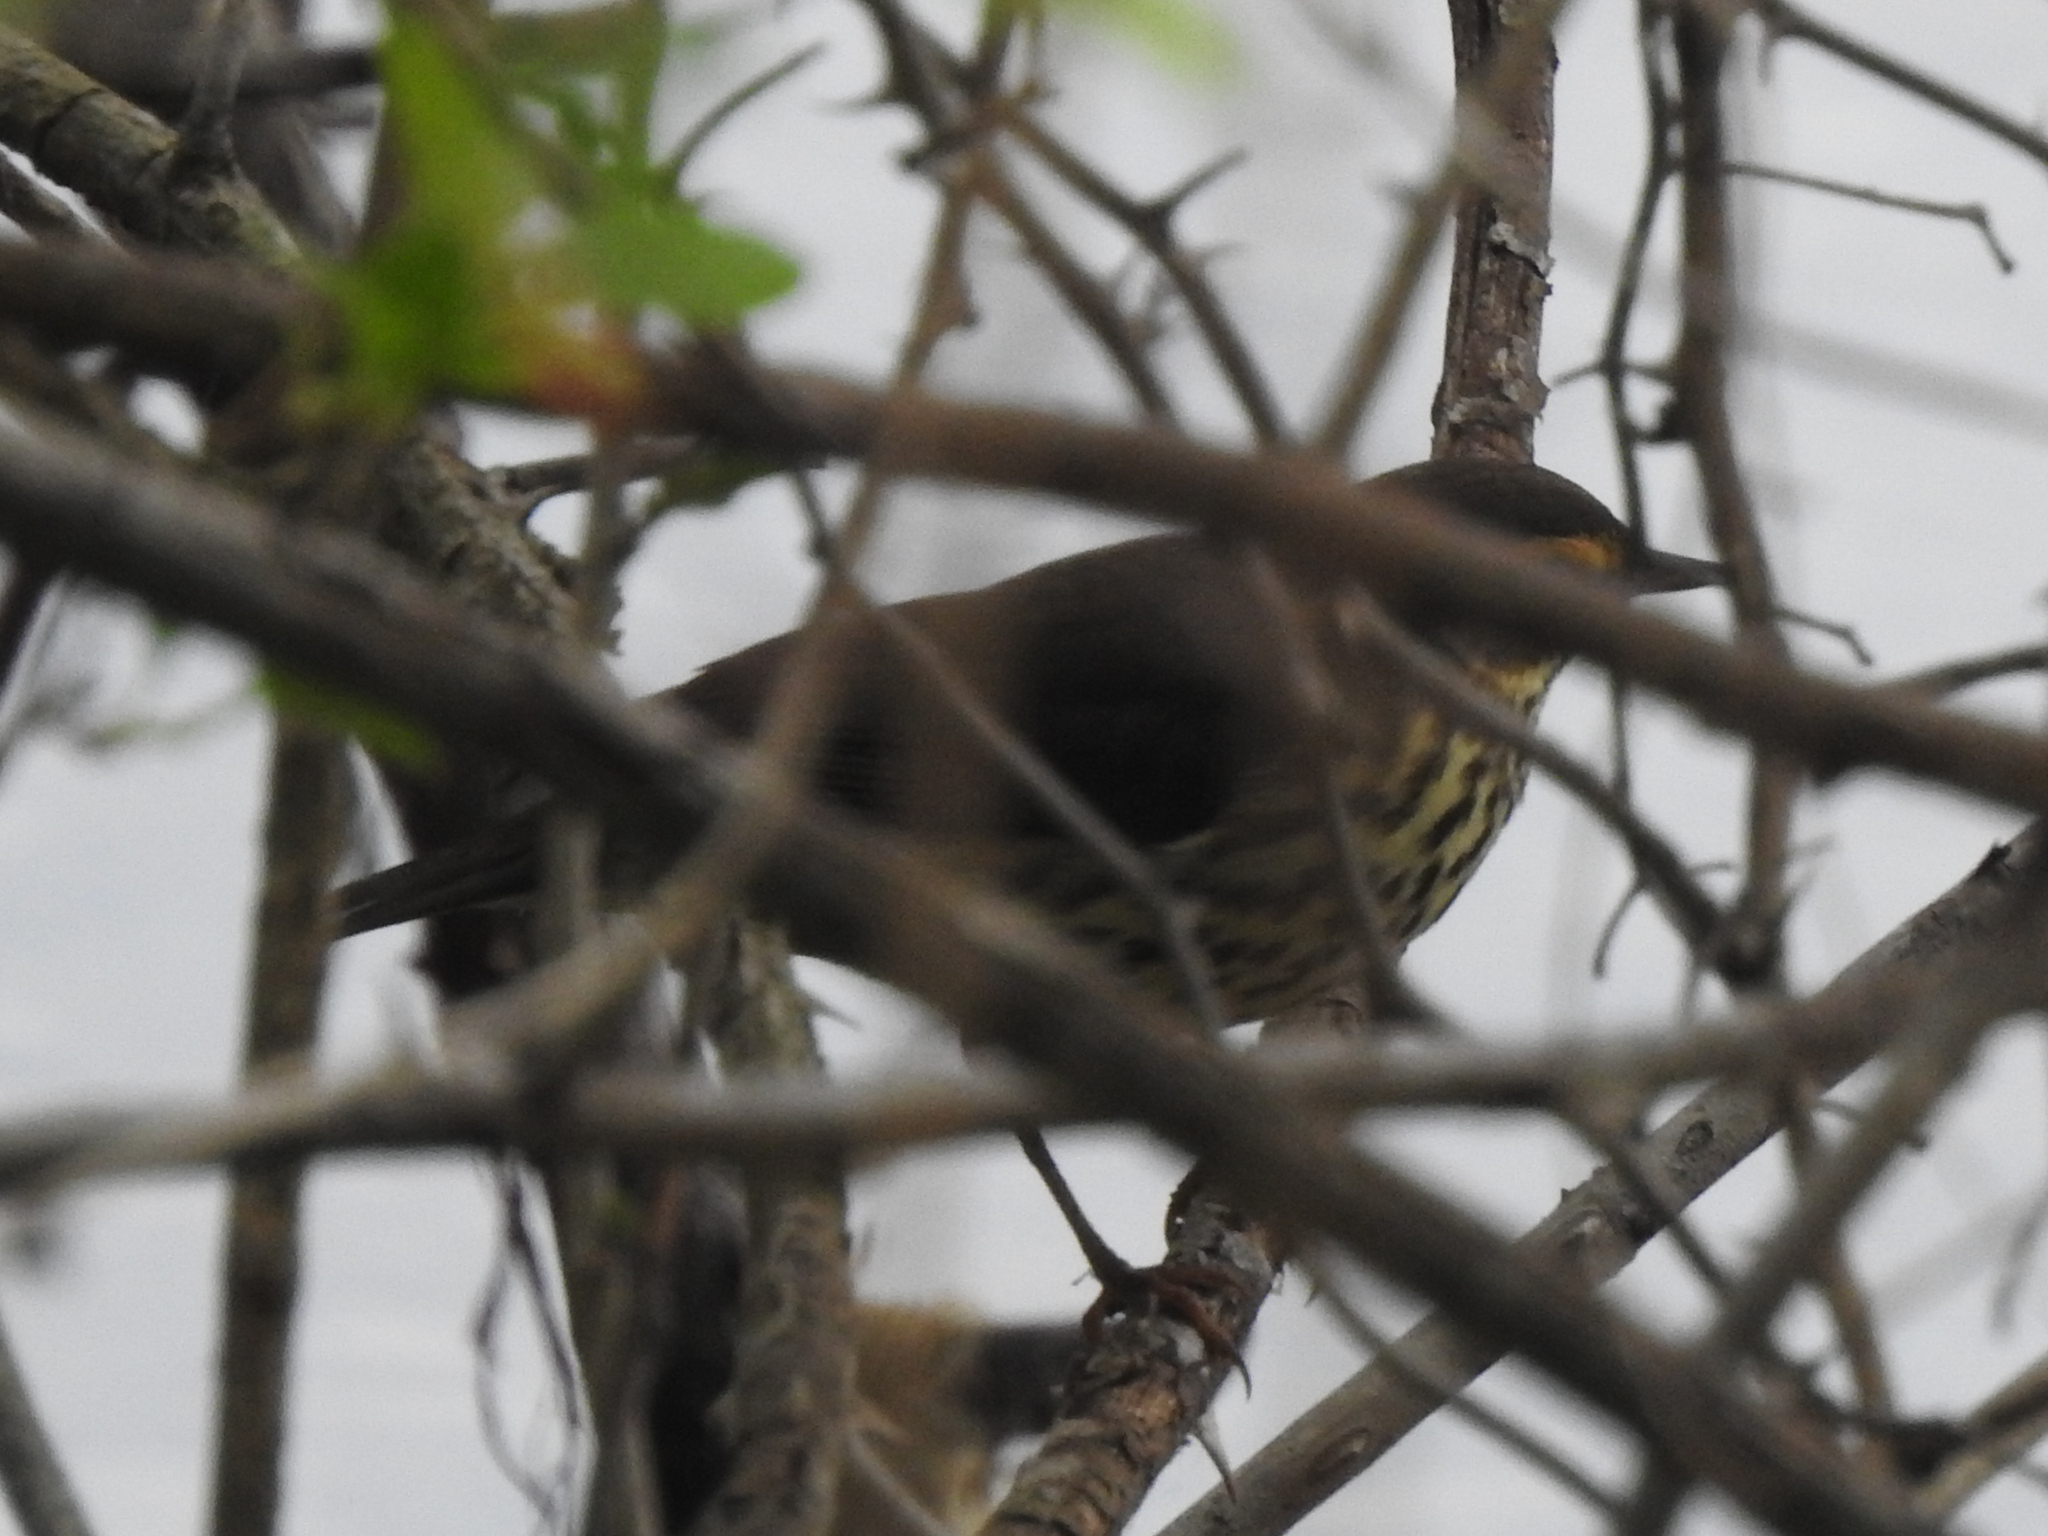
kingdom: Animalia
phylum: Chordata
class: Aves
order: Passeriformes
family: Parulidae
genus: Parkesia
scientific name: Parkesia noveboracensis
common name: Northern waterthrush
